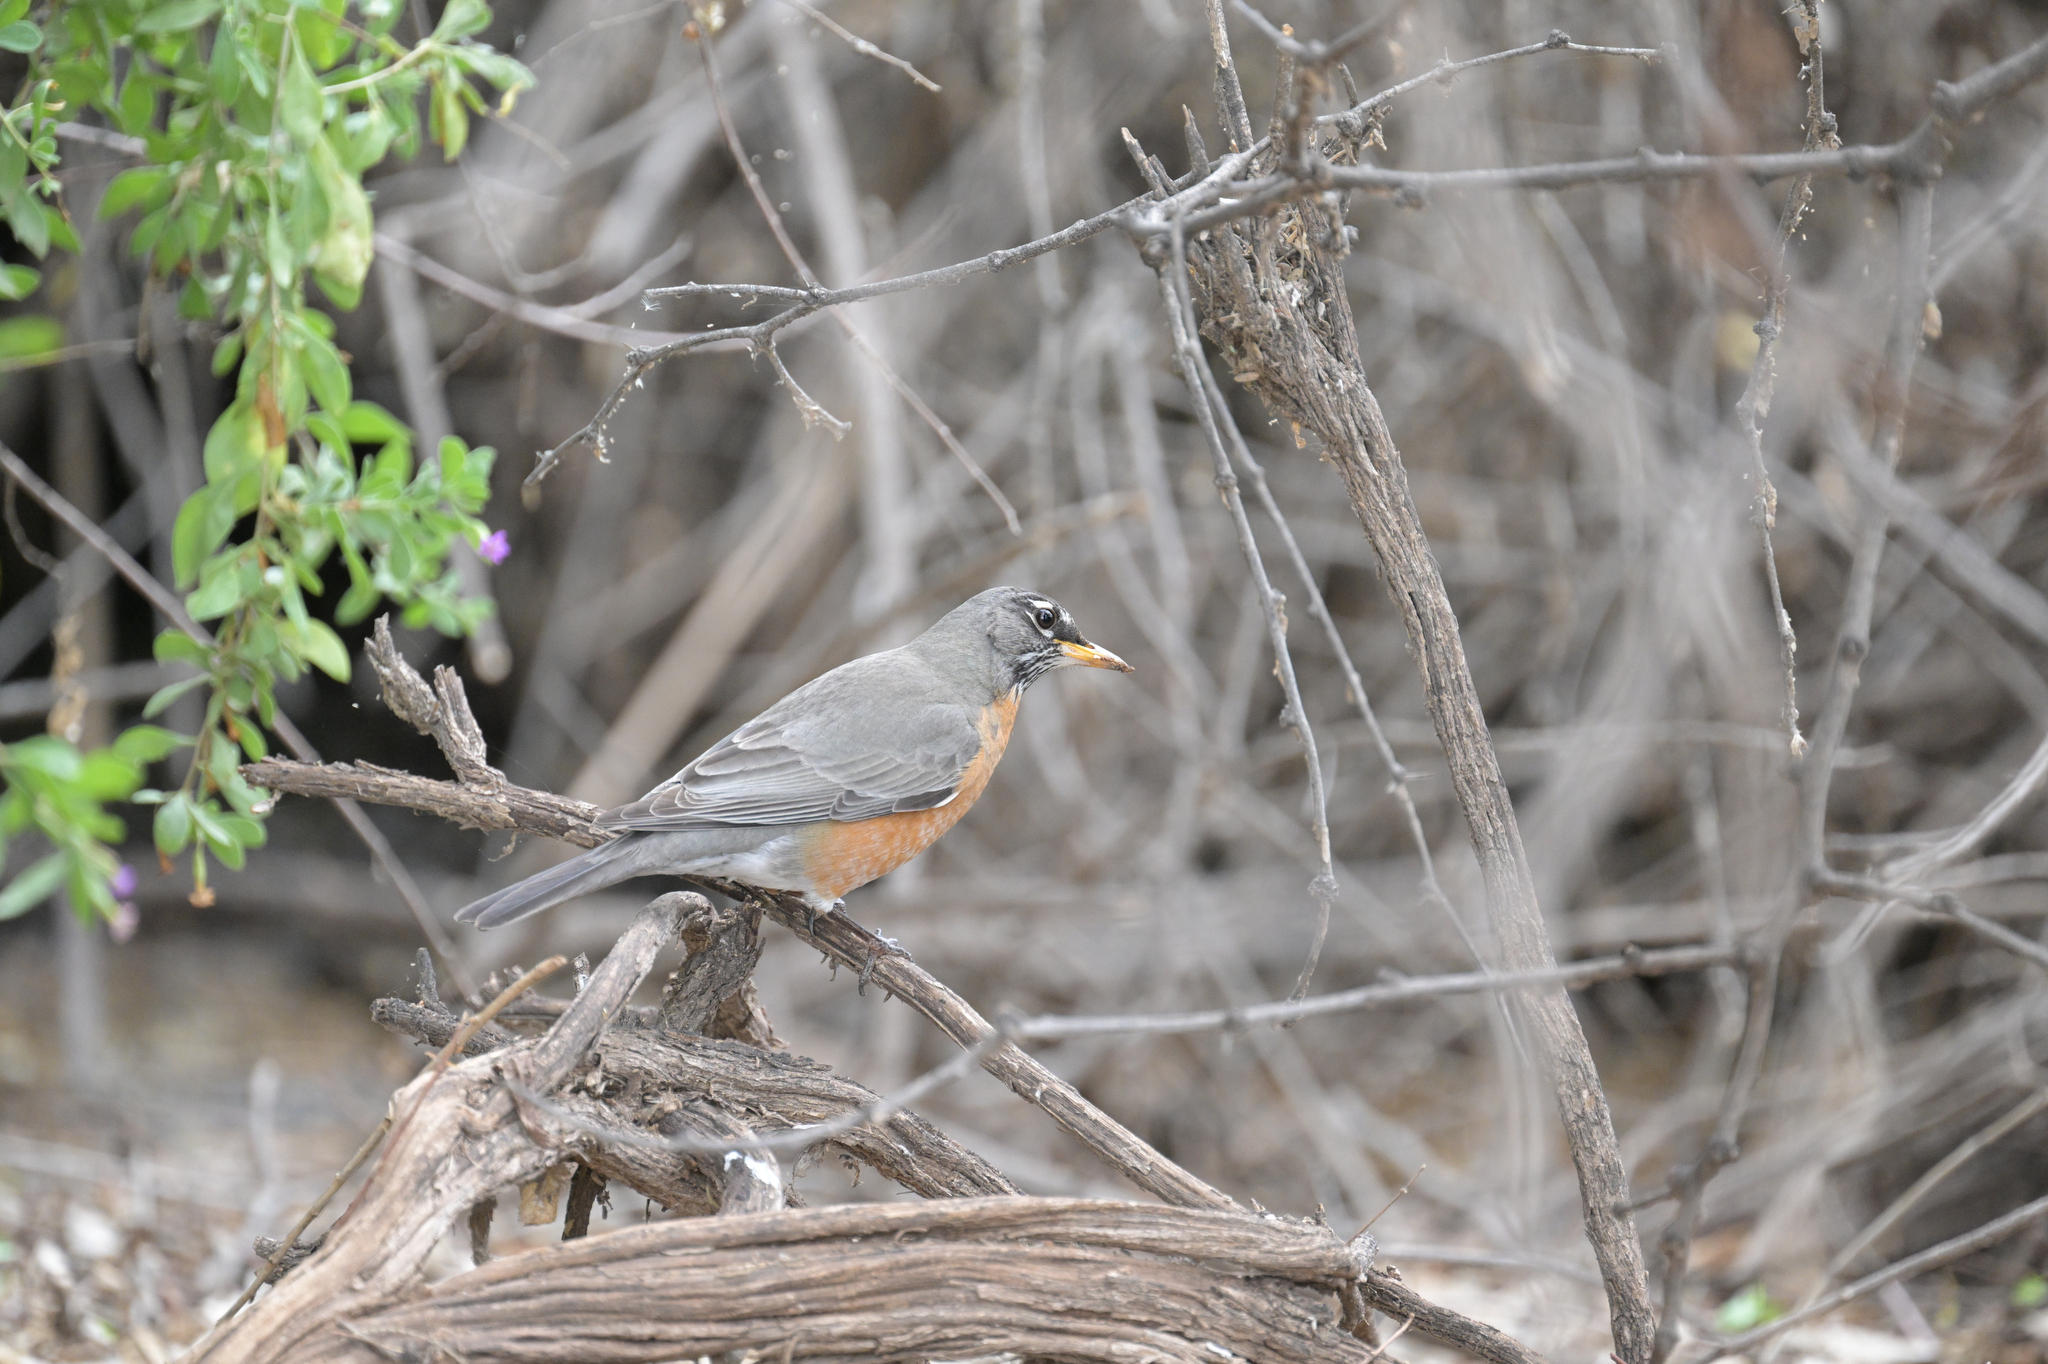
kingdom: Animalia
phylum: Chordata
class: Aves
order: Passeriformes
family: Turdidae
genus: Turdus
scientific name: Turdus migratorius
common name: American robin
